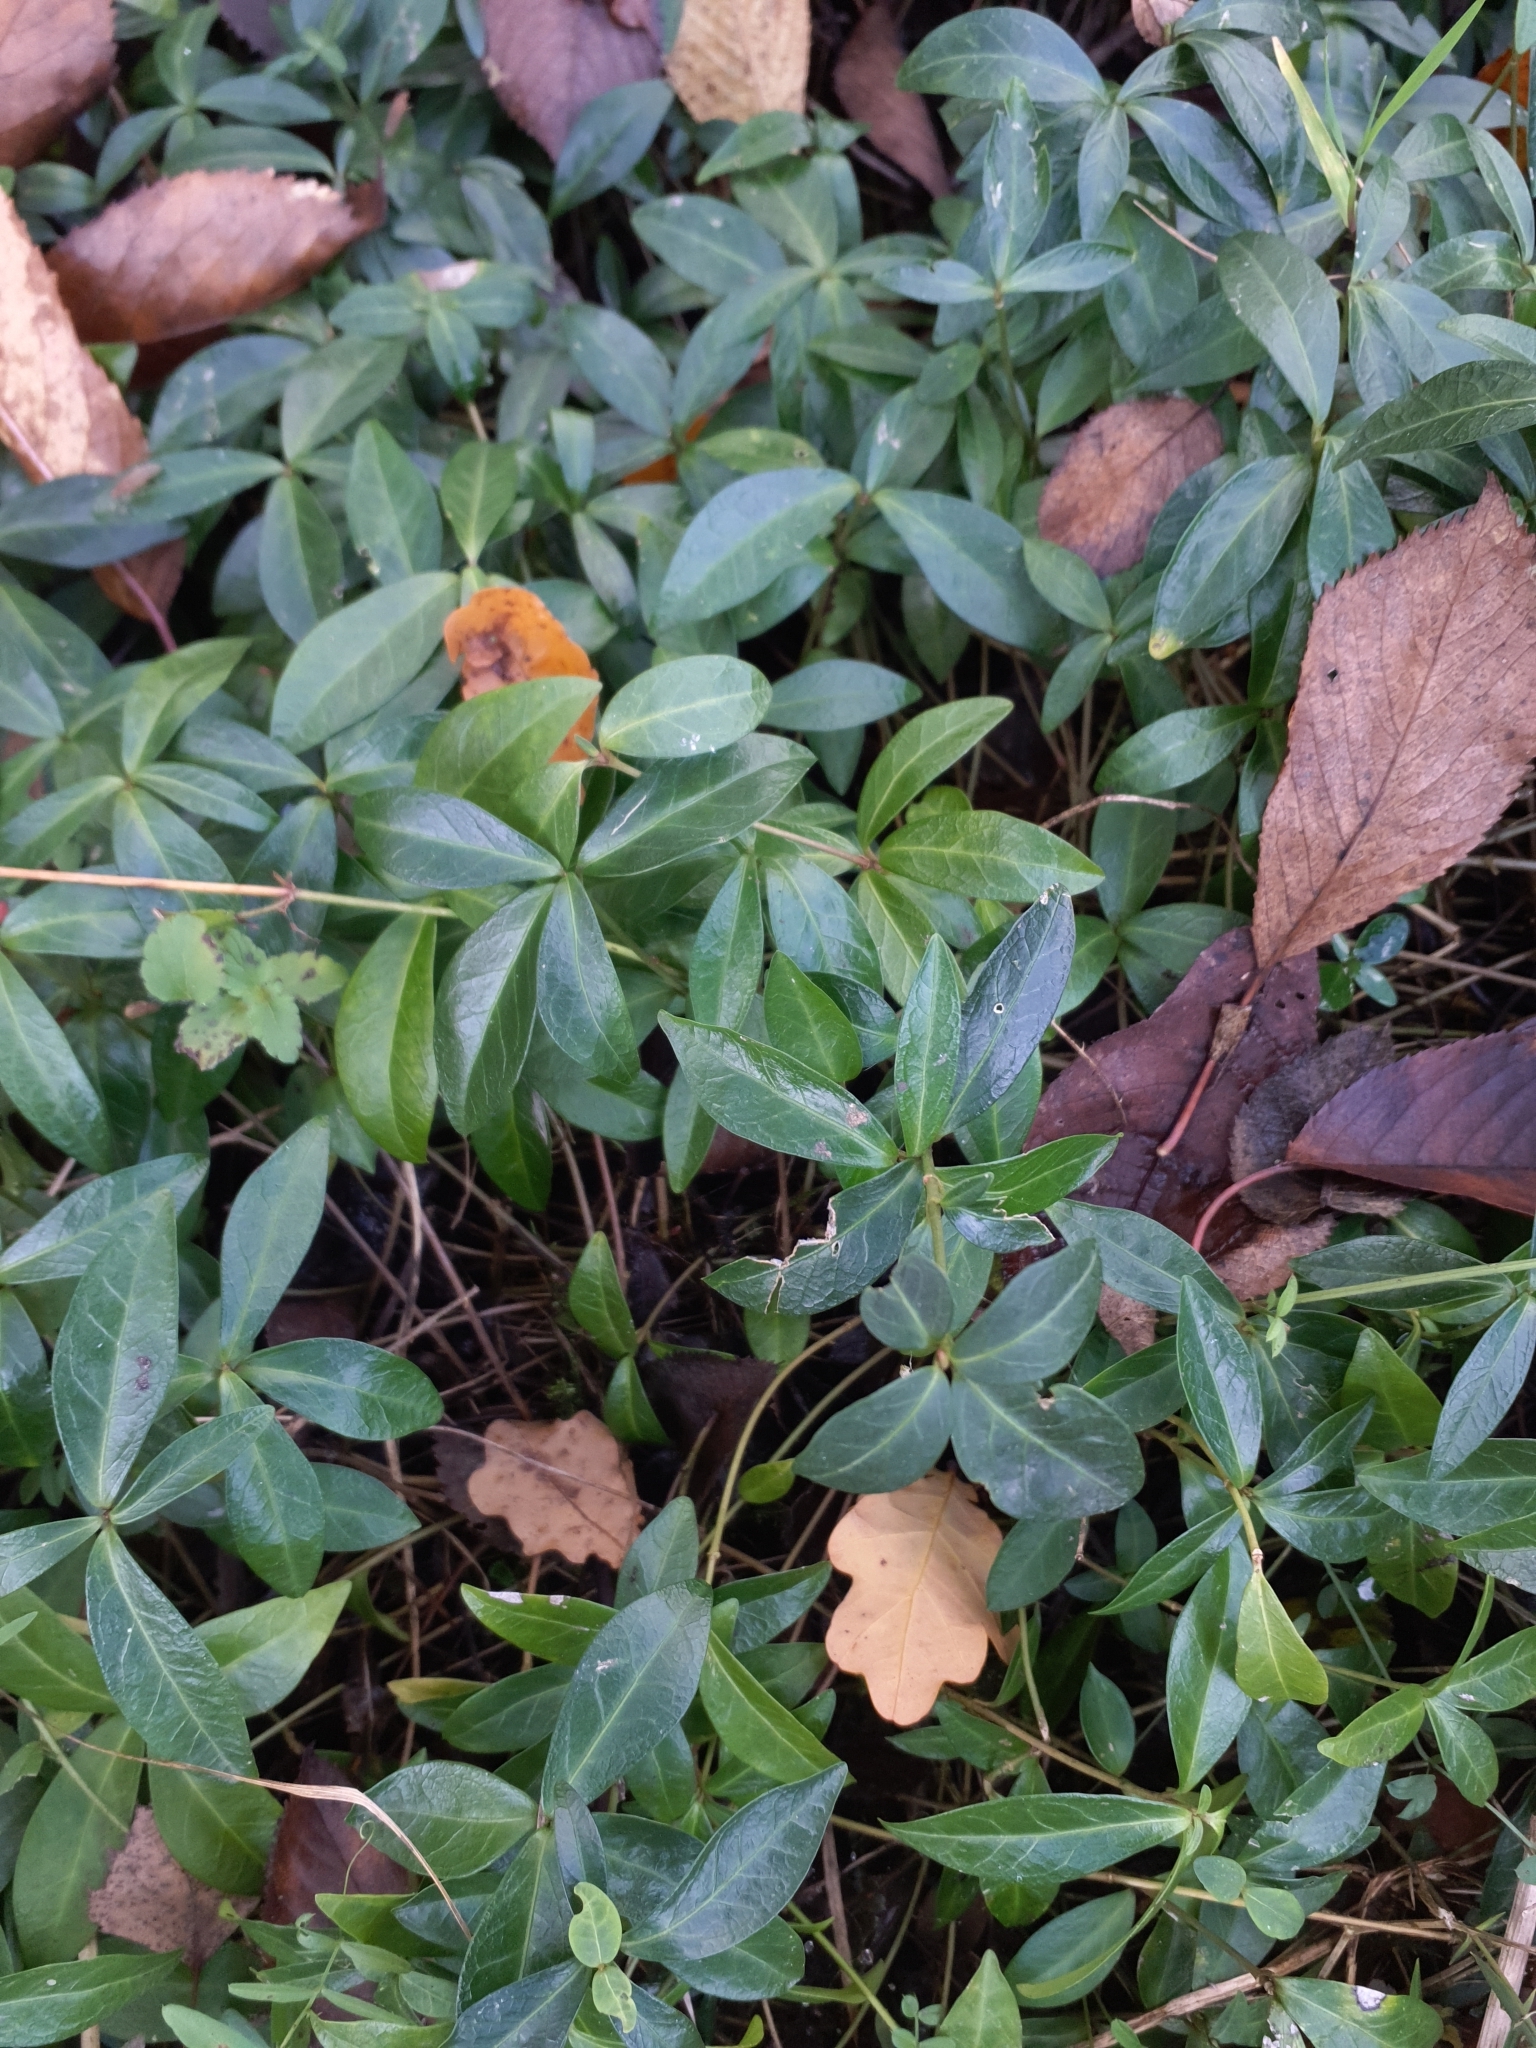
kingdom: Plantae
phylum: Tracheophyta
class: Magnoliopsida
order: Gentianales
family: Apocynaceae
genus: Vinca
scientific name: Vinca minor
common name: Lesser periwinkle
